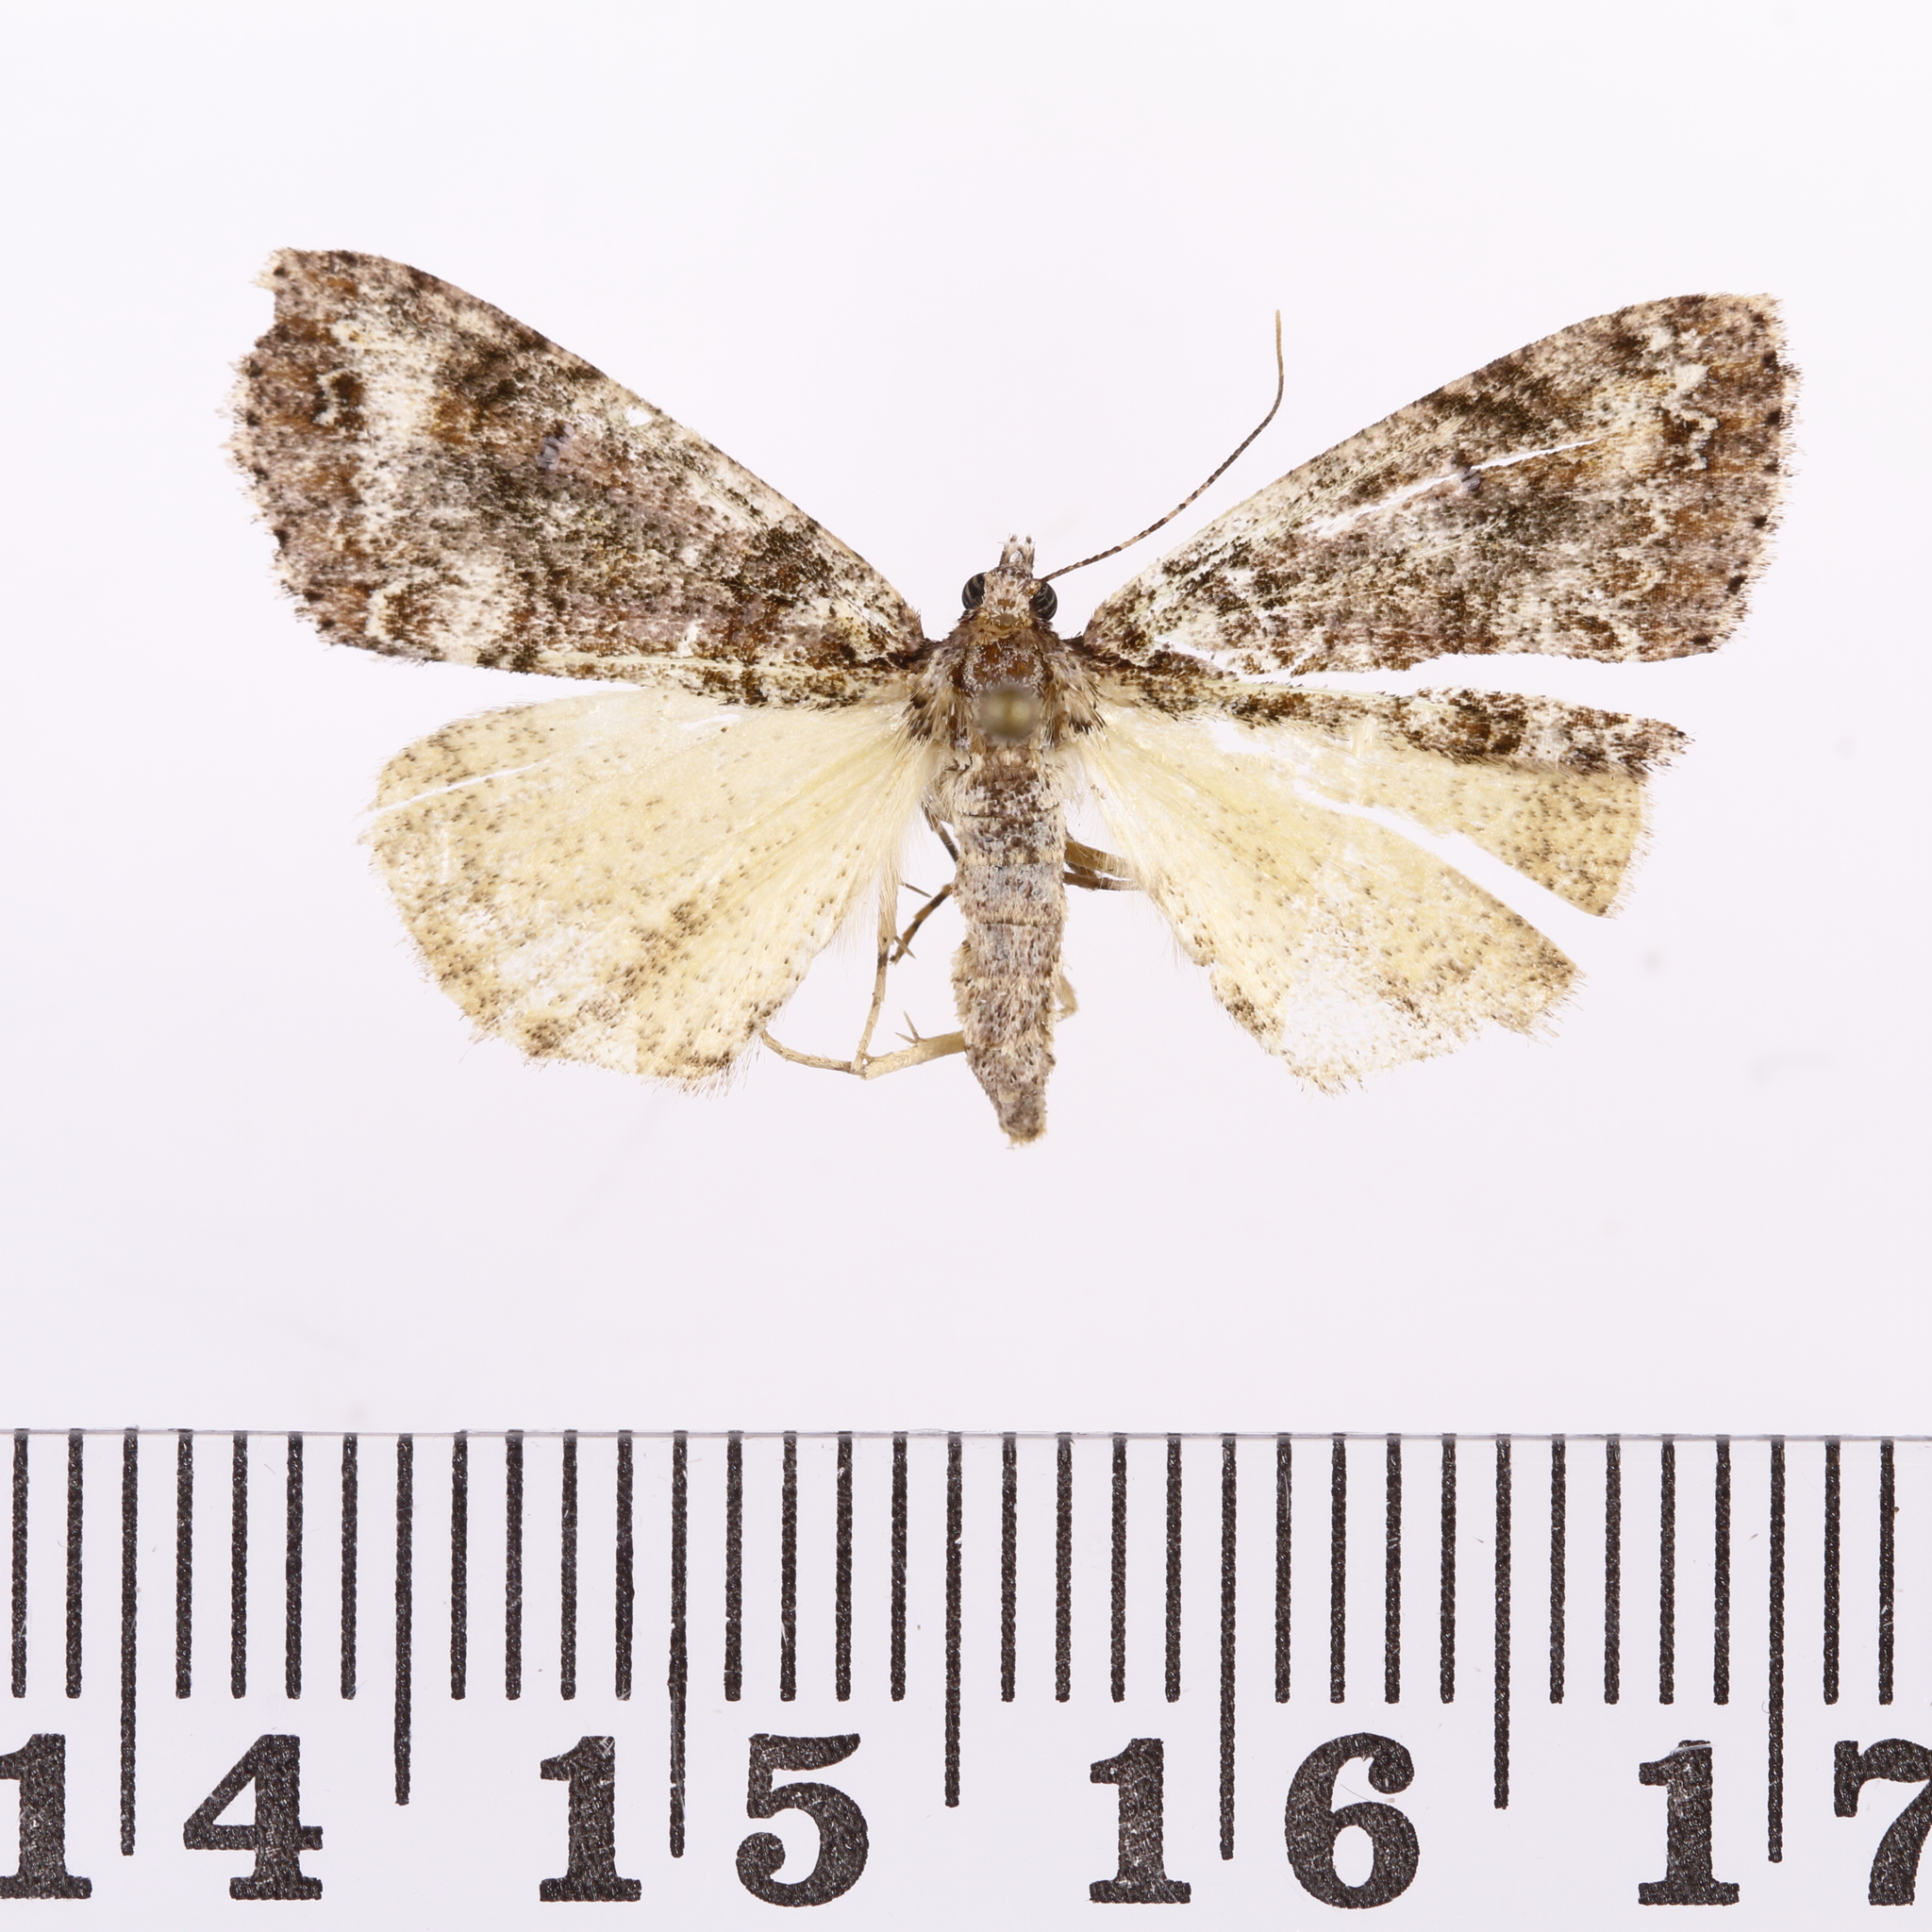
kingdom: Animalia
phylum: Arthropoda
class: Insecta
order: Lepidoptera
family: Geometridae
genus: Pseudocoremia
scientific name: Pseudocoremia suavis
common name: Common forest looper
